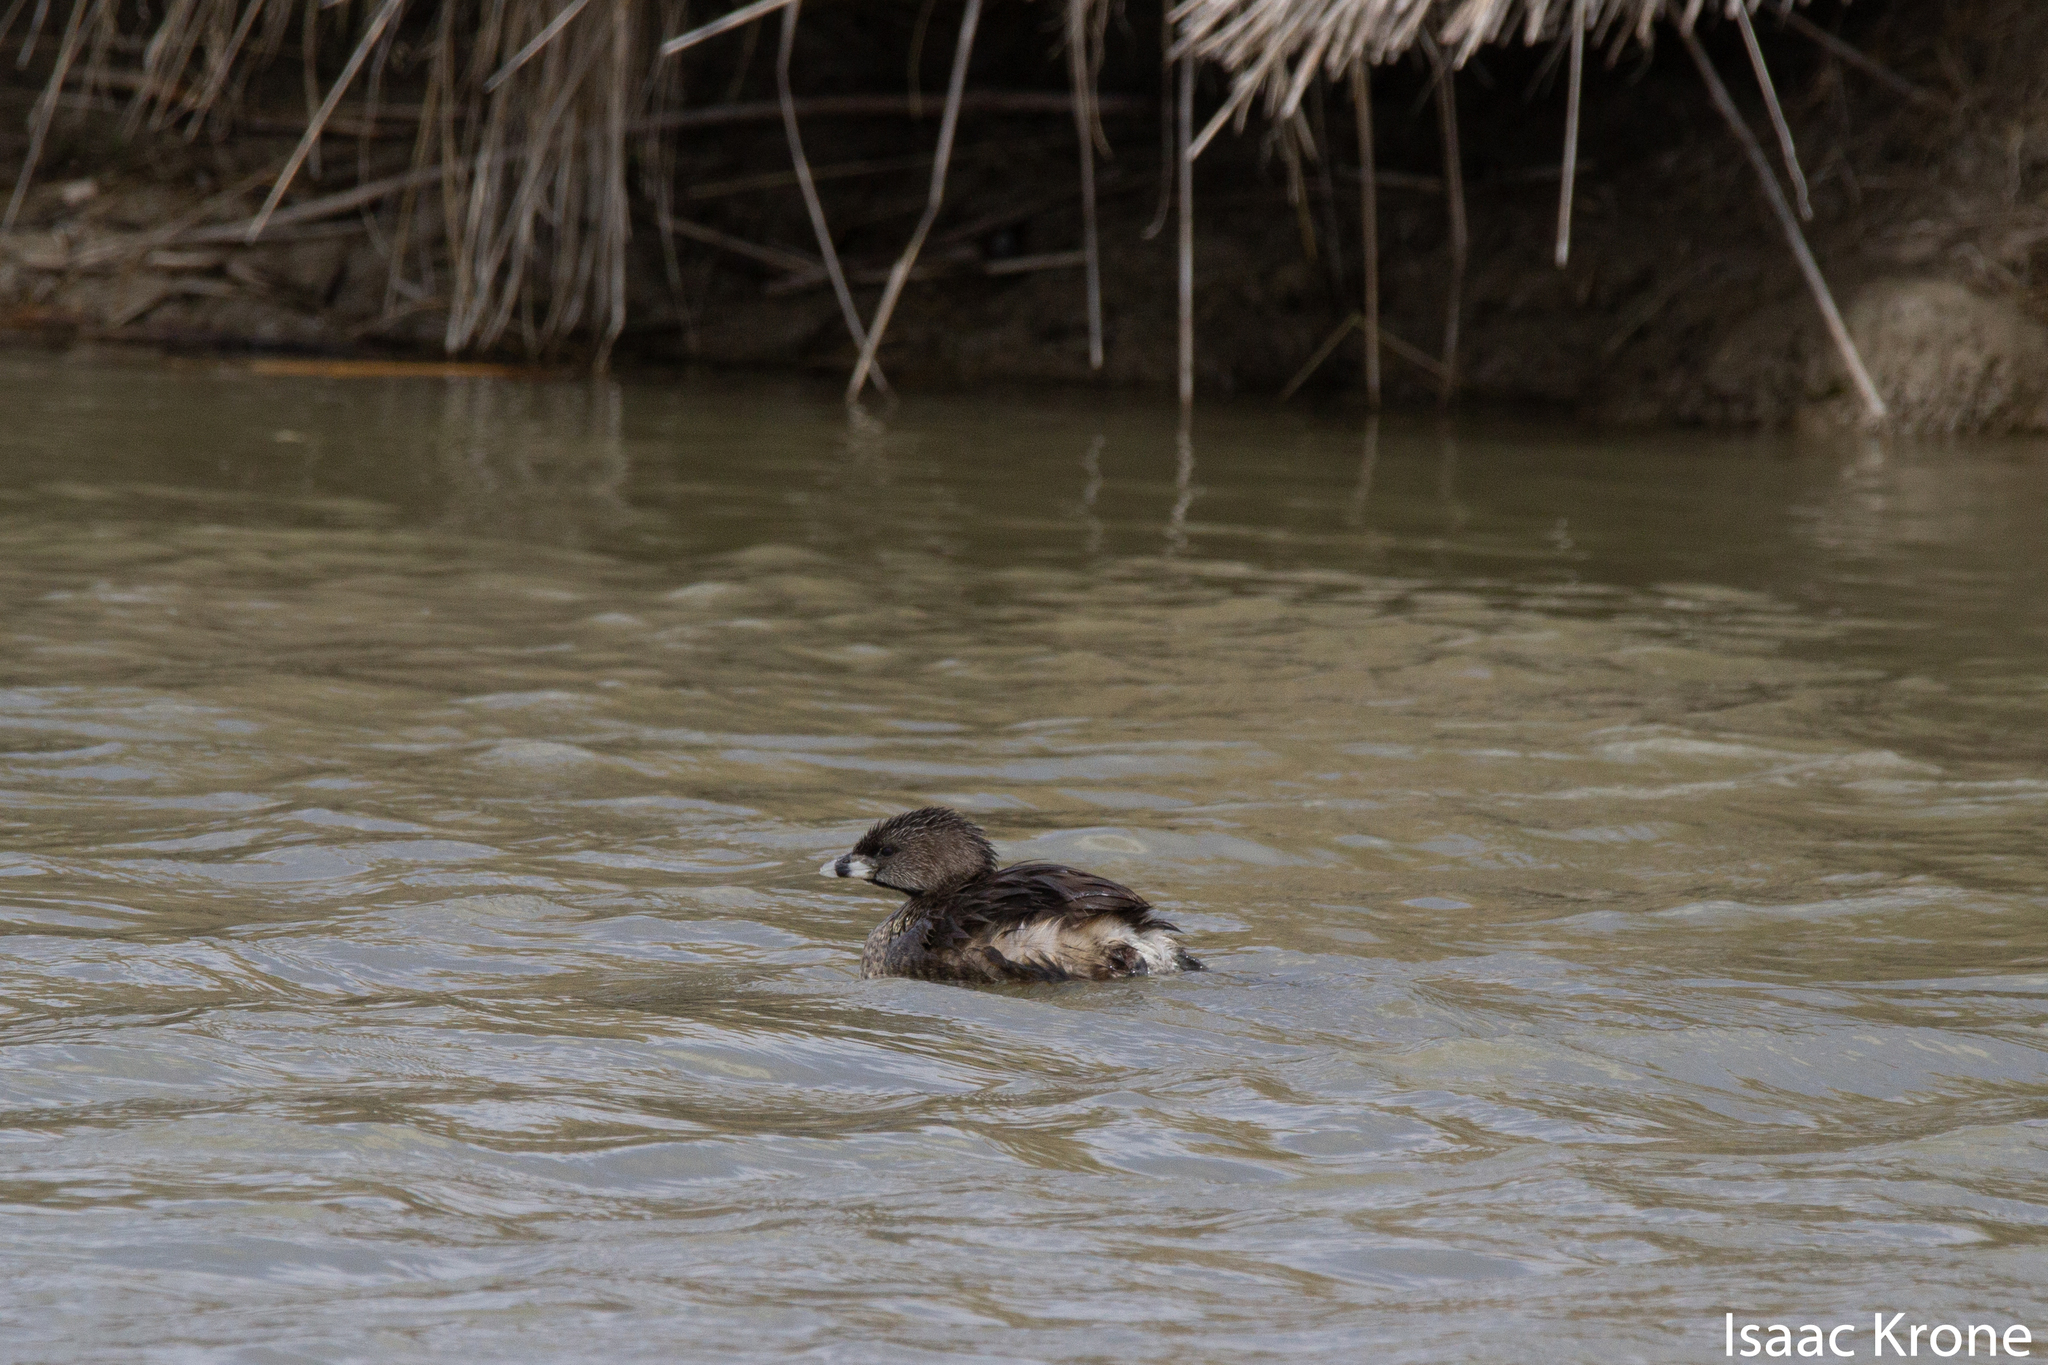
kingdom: Animalia
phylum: Chordata
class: Aves
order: Podicipediformes
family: Podicipedidae
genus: Podilymbus
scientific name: Podilymbus podiceps
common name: Pied-billed grebe
